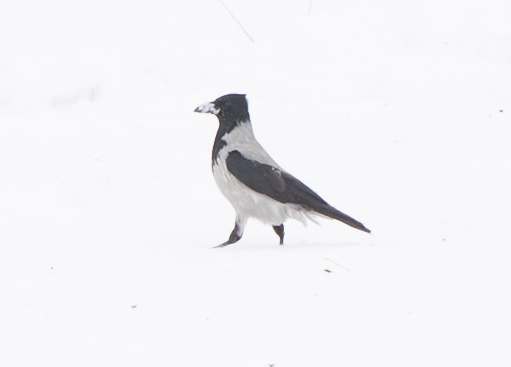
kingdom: Animalia
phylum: Chordata
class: Aves
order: Passeriformes
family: Corvidae
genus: Corvus
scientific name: Corvus cornix
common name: Hooded crow
